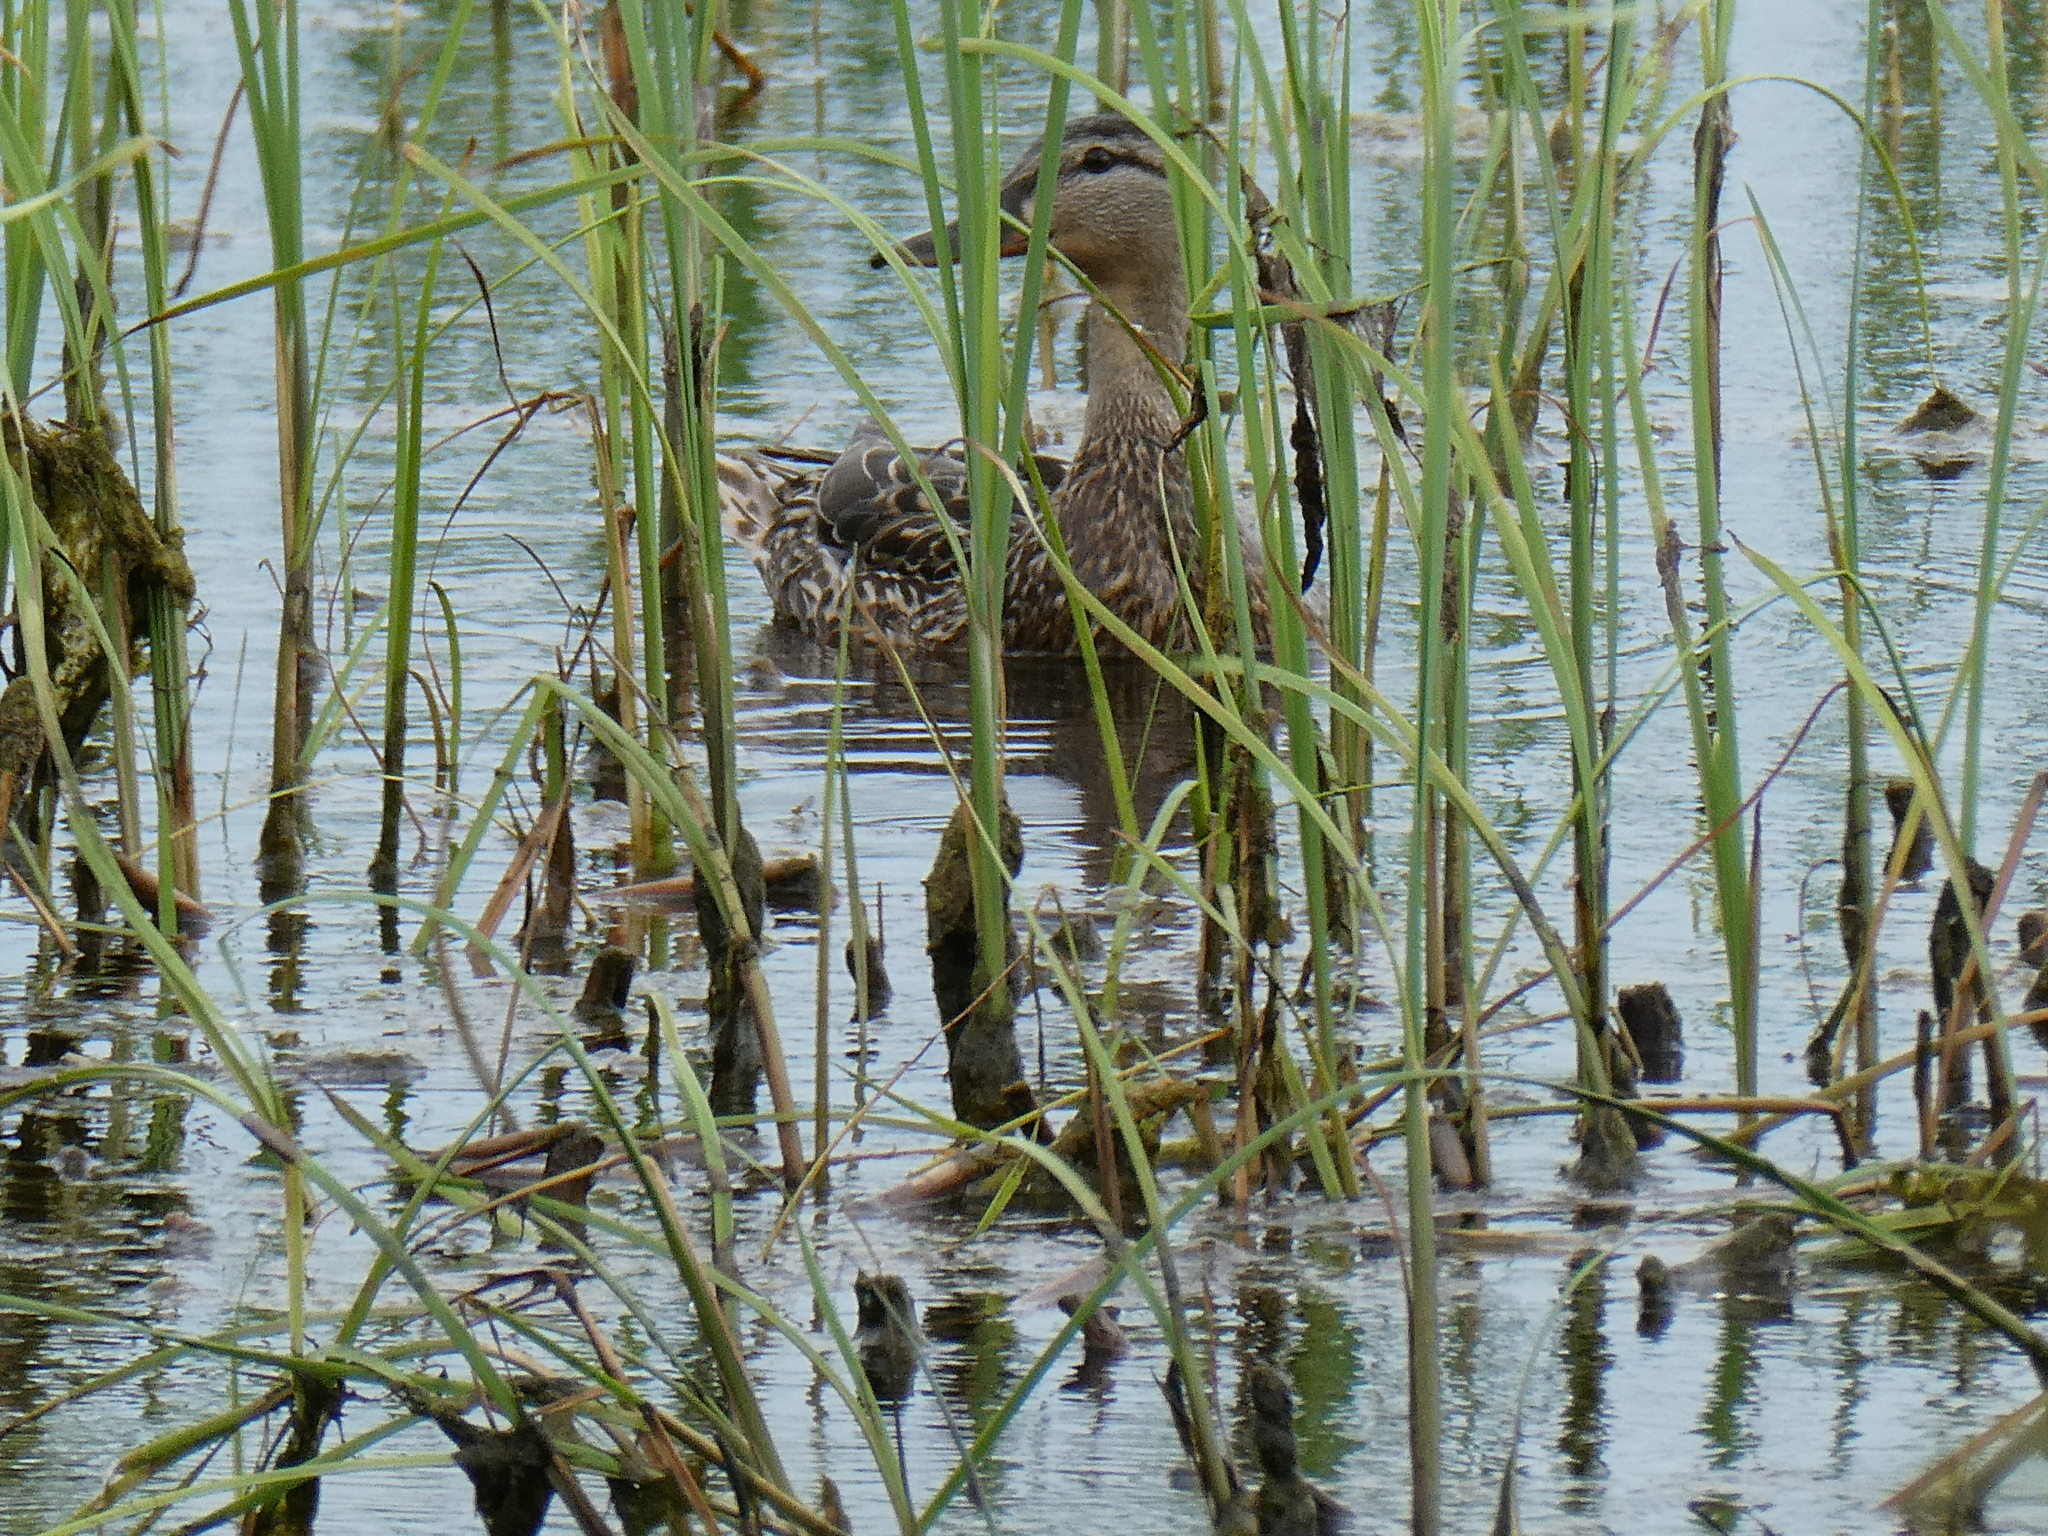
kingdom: Animalia
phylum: Chordata
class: Aves
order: Anseriformes
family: Anatidae
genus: Anas
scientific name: Anas platyrhynchos
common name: Mallard
